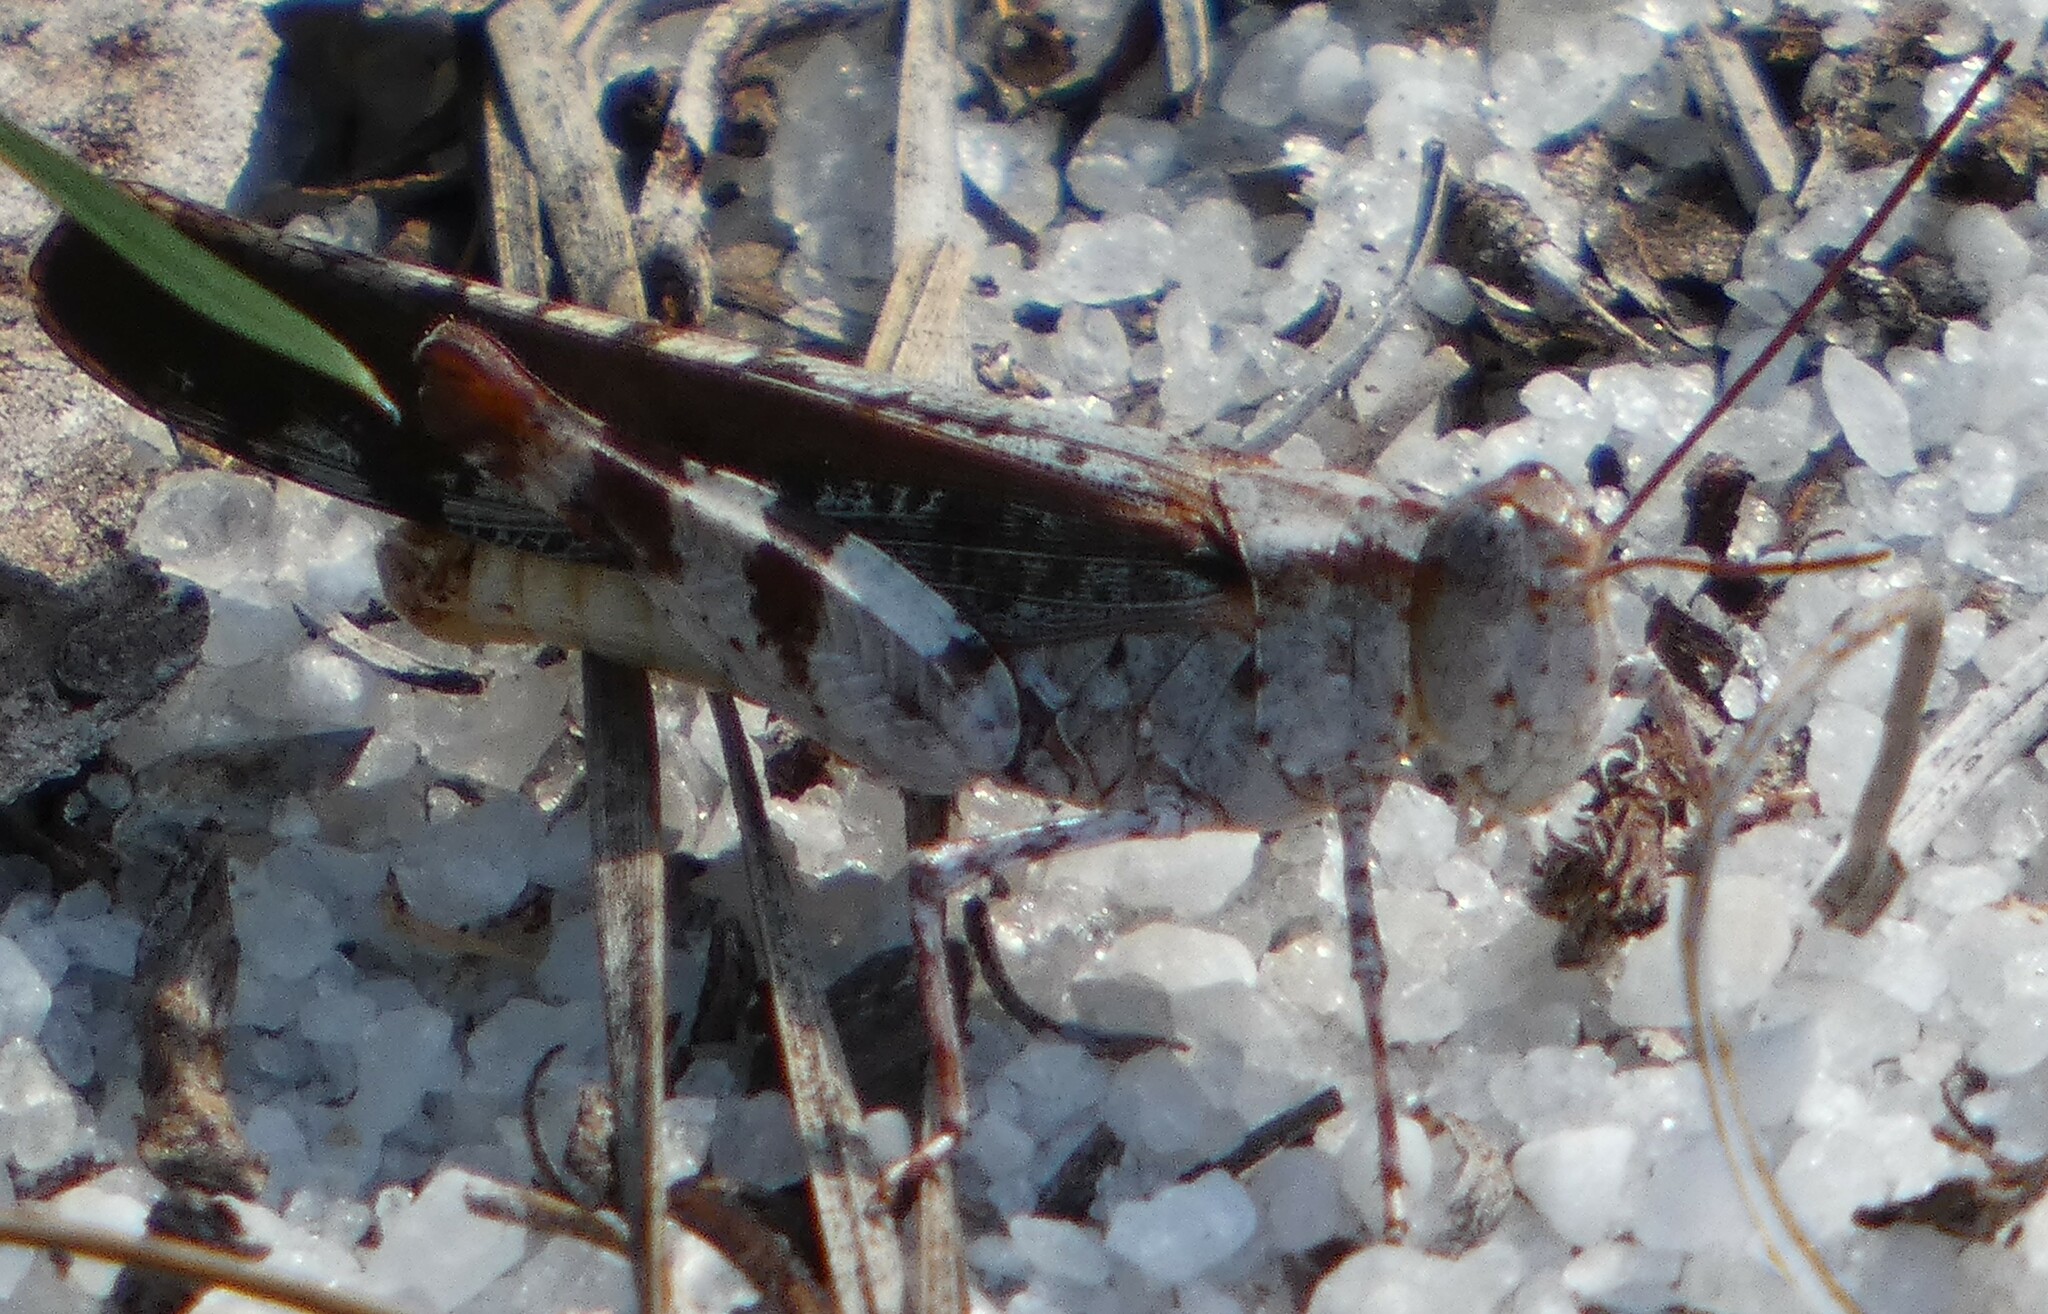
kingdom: Animalia
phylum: Arthropoda
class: Insecta
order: Orthoptera
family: Acrididae
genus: Spharagemon
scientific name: Spharagemon marmoratum
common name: Marbled grasshopper
